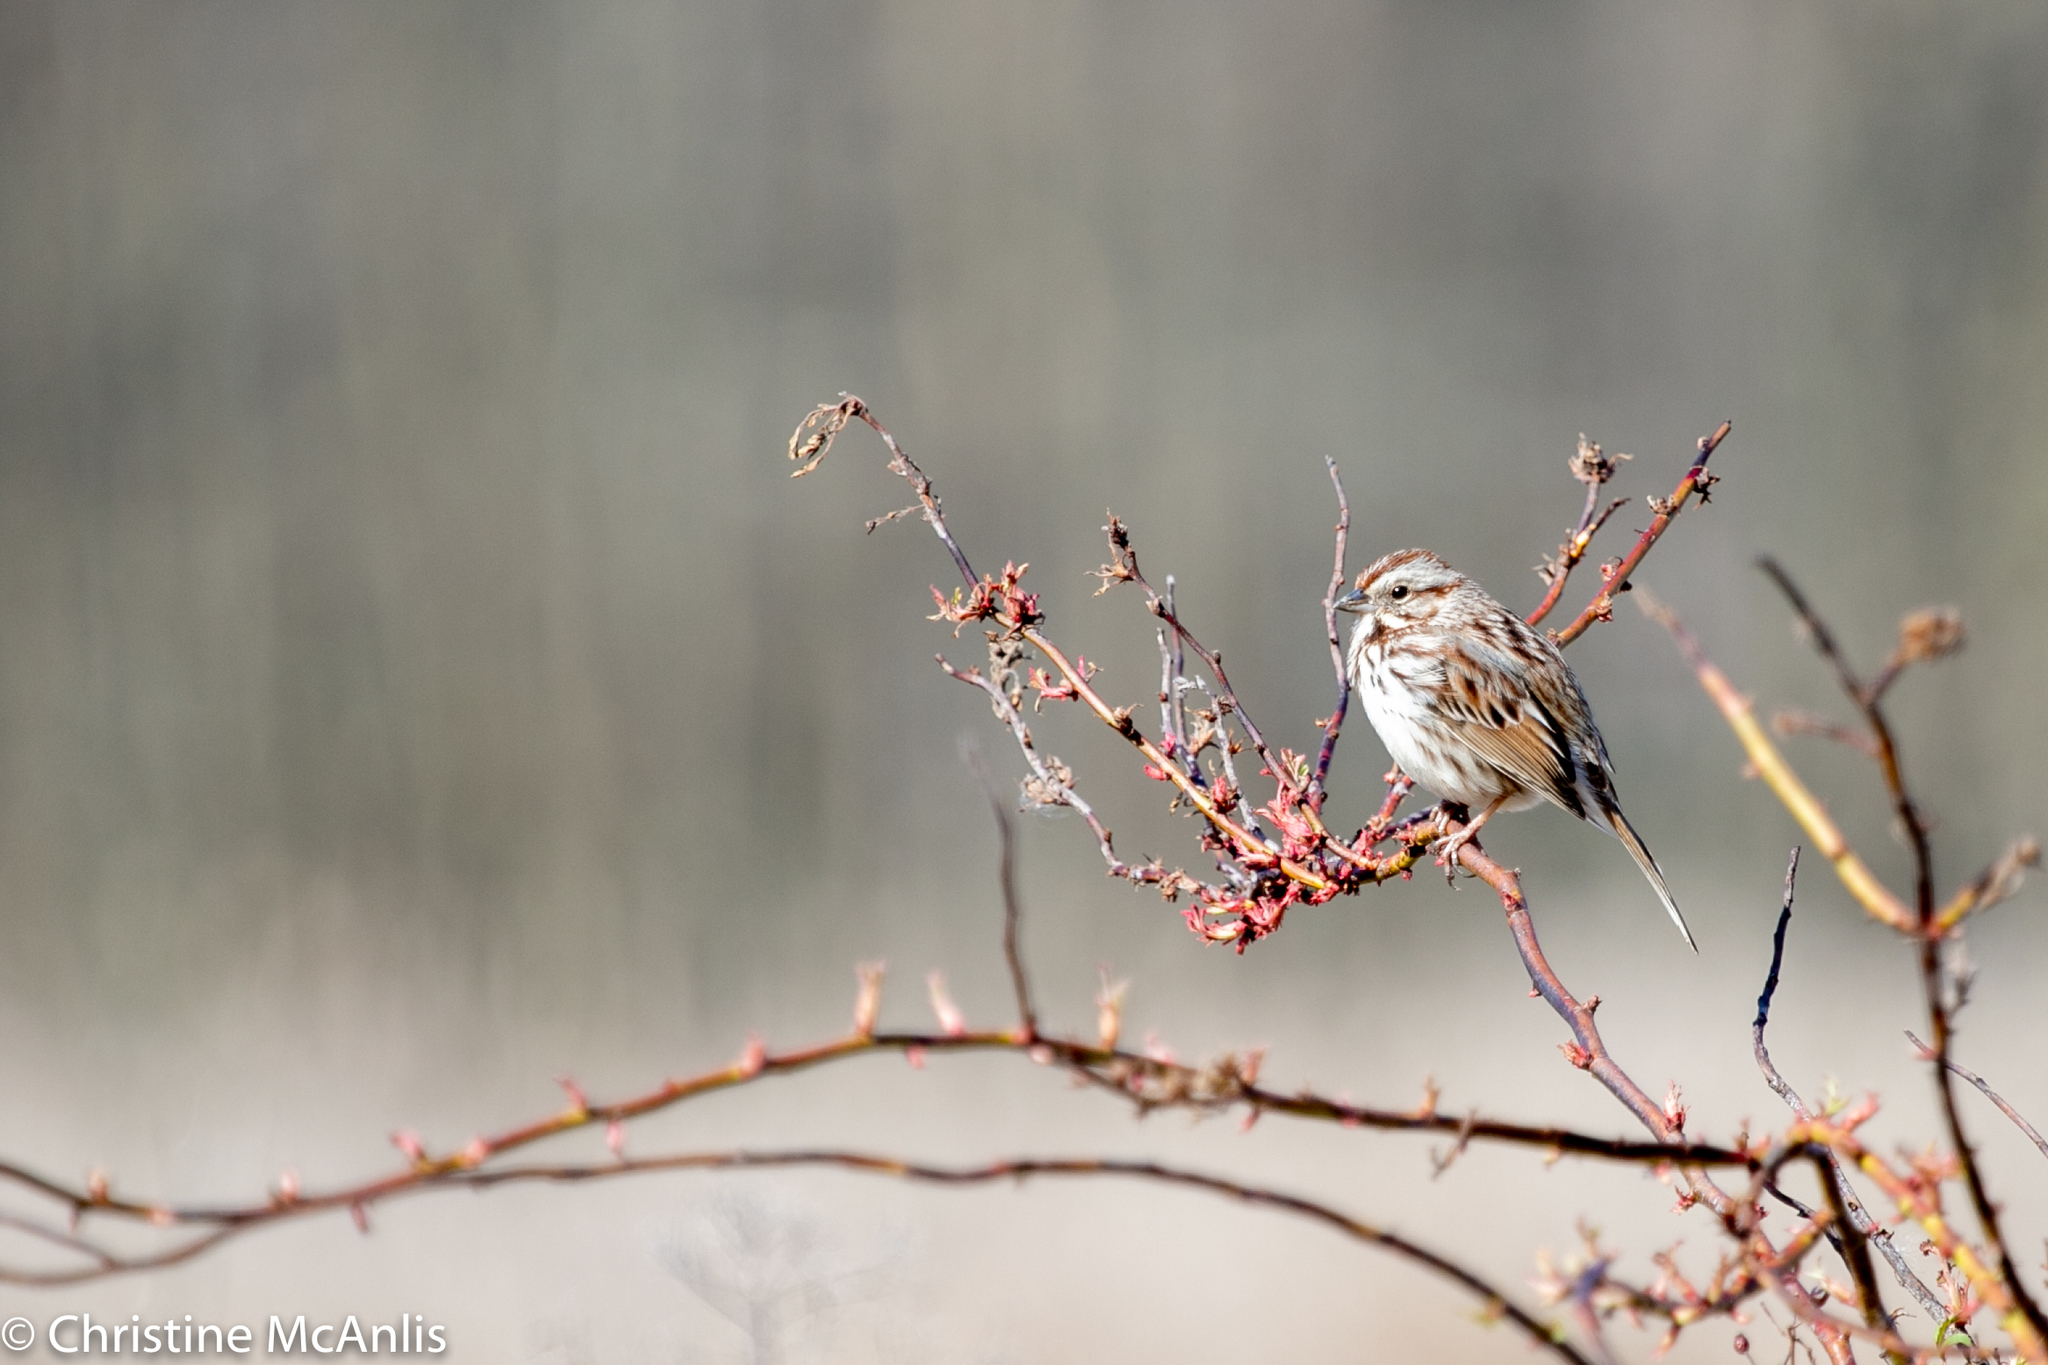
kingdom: Animalia
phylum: Chordata
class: Aves
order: Passeriformes
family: Passerellidae
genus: Melospiza
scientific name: Melospiza melodia
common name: Song sparrow
